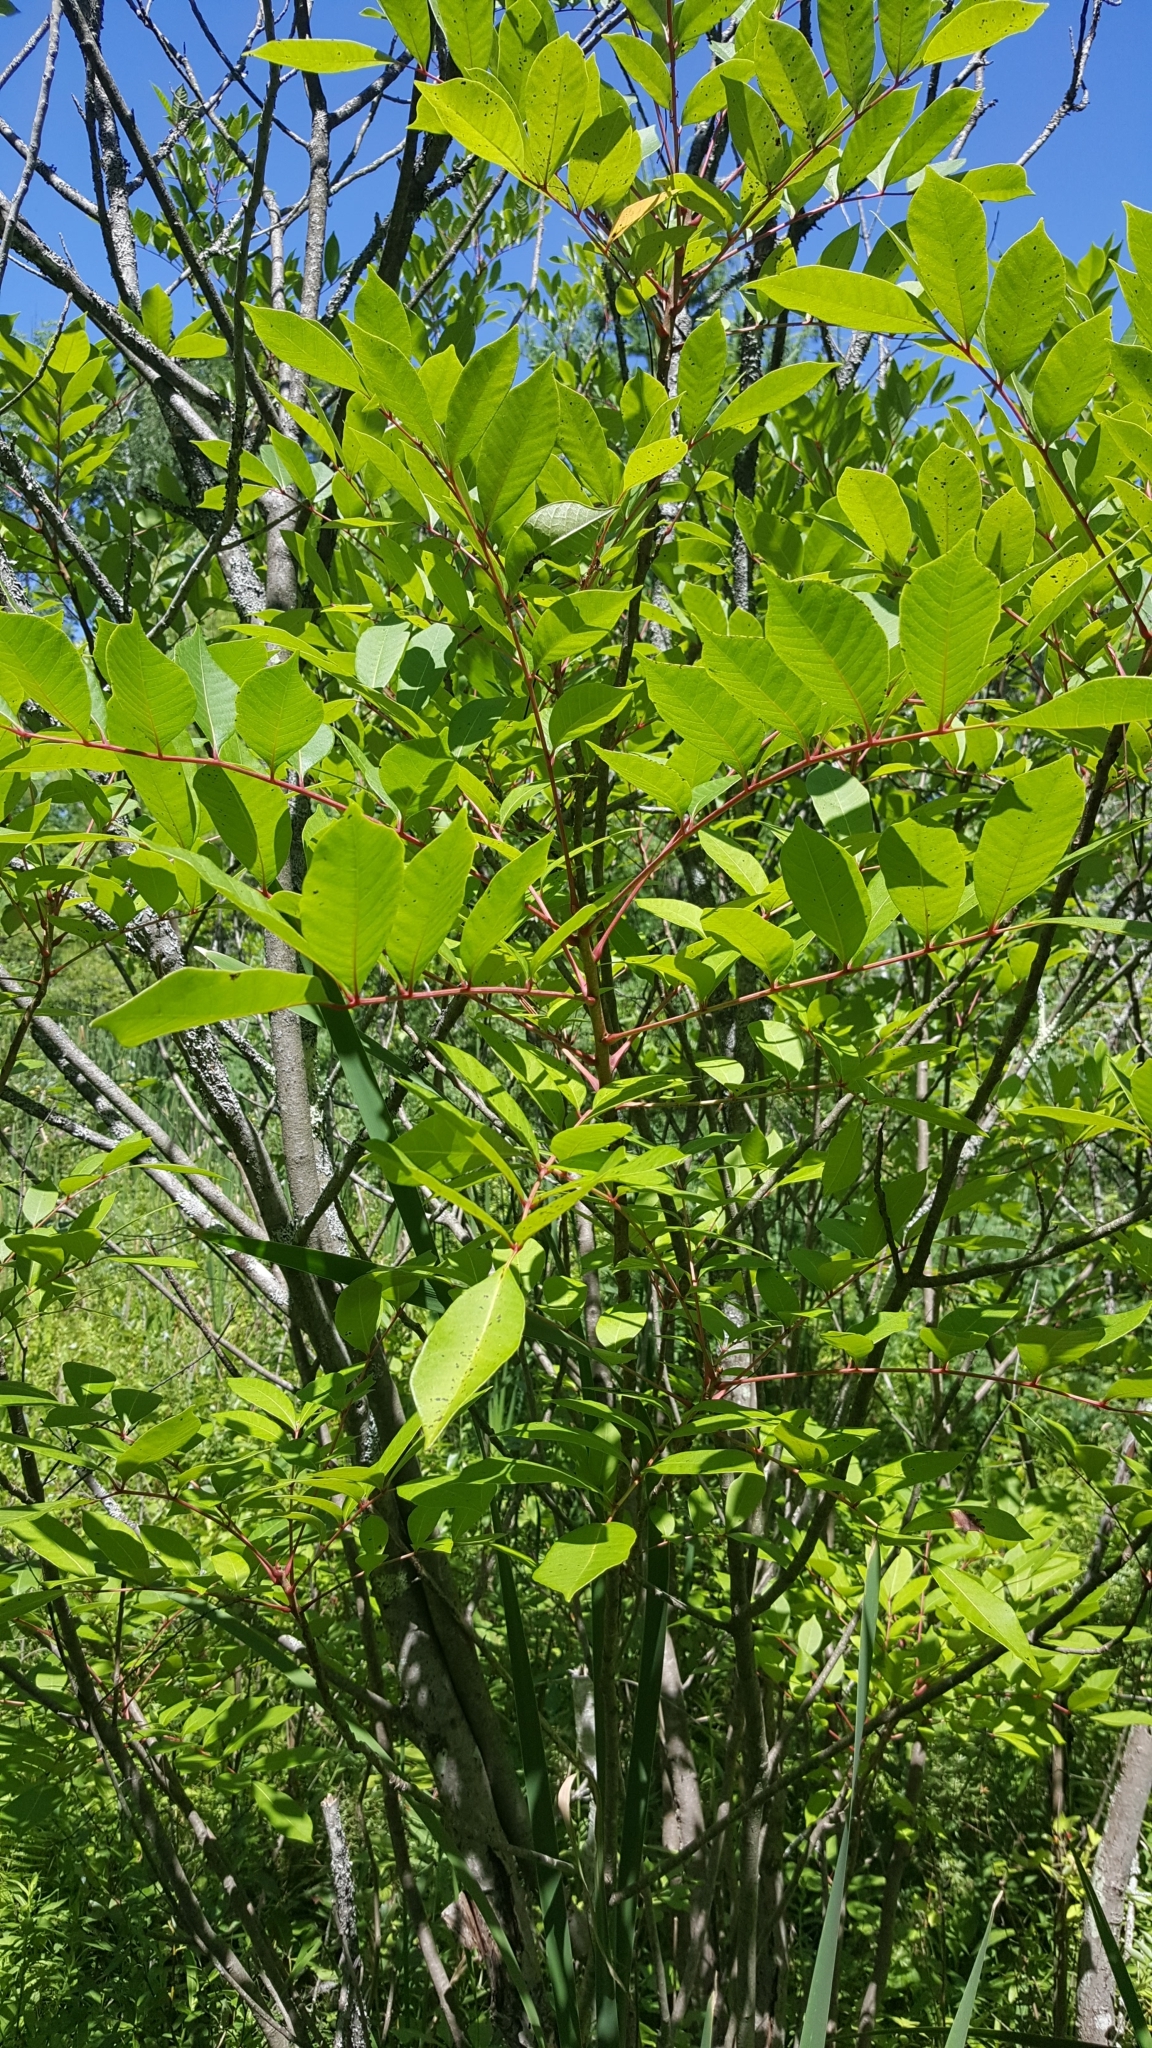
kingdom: Plantae
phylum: Tracheophyta
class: Magnoliopsida
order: Sapindales
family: Anacardiaceae
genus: Toxicodendron
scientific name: Toxicodendron vernix
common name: Poison sumac
